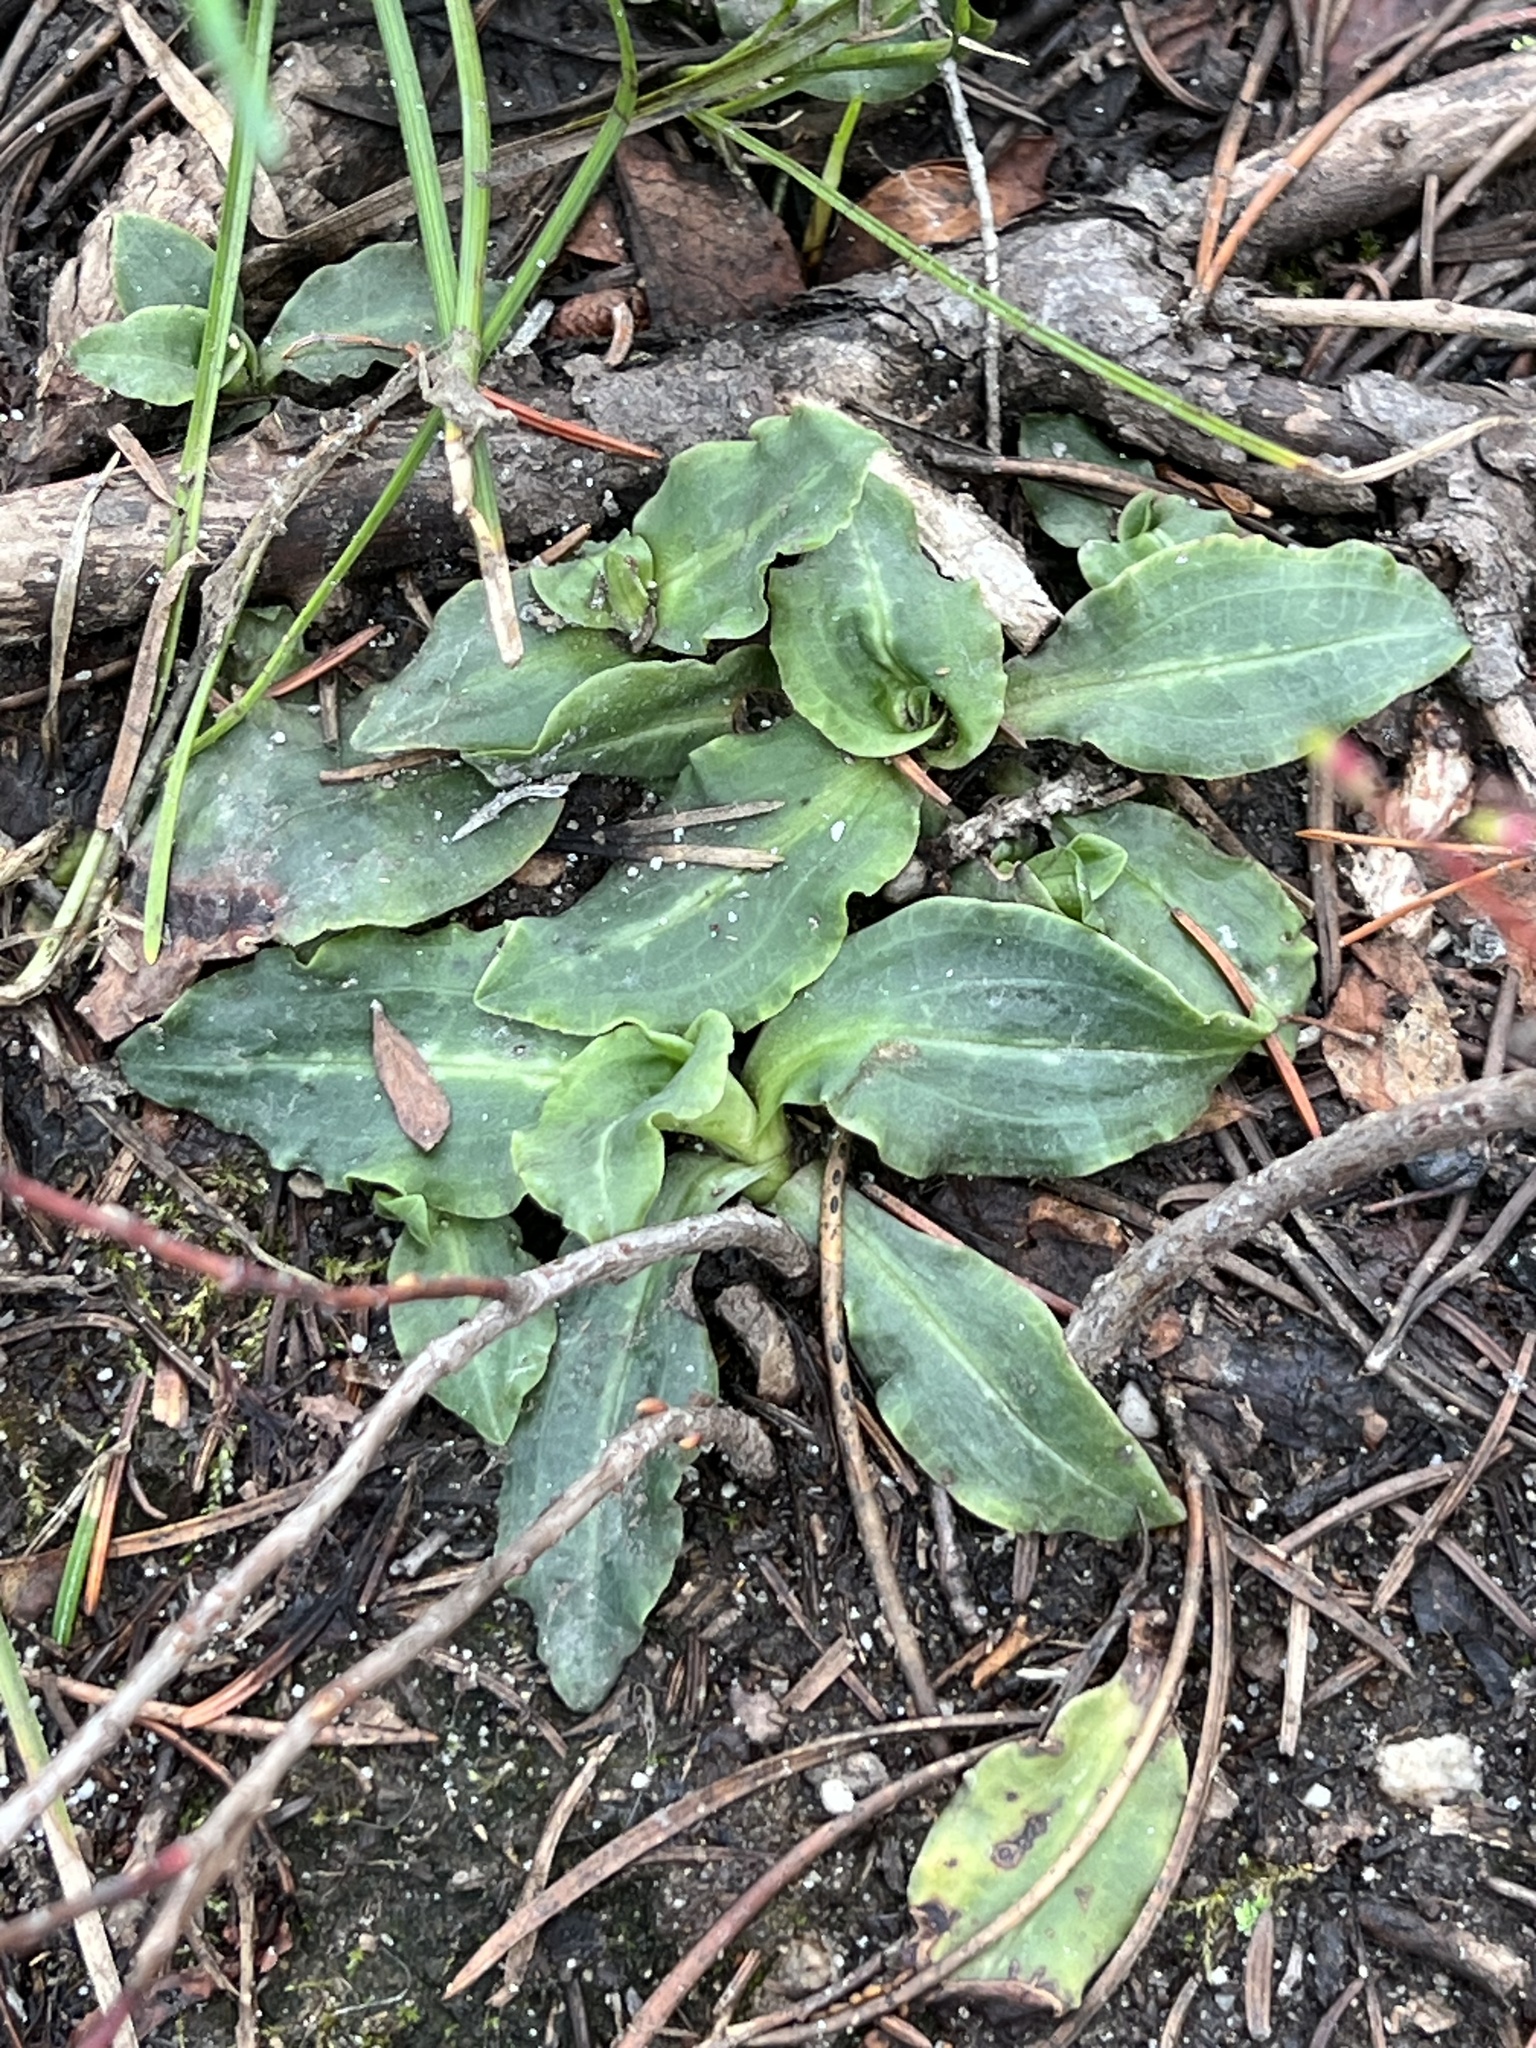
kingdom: Plantae
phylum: Tracheophyta
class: Liliopsida
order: Asparagales
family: Orchidaceae
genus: Goodyera
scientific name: Goodyera oblongifolia
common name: Giant rattlesnake-plantain
